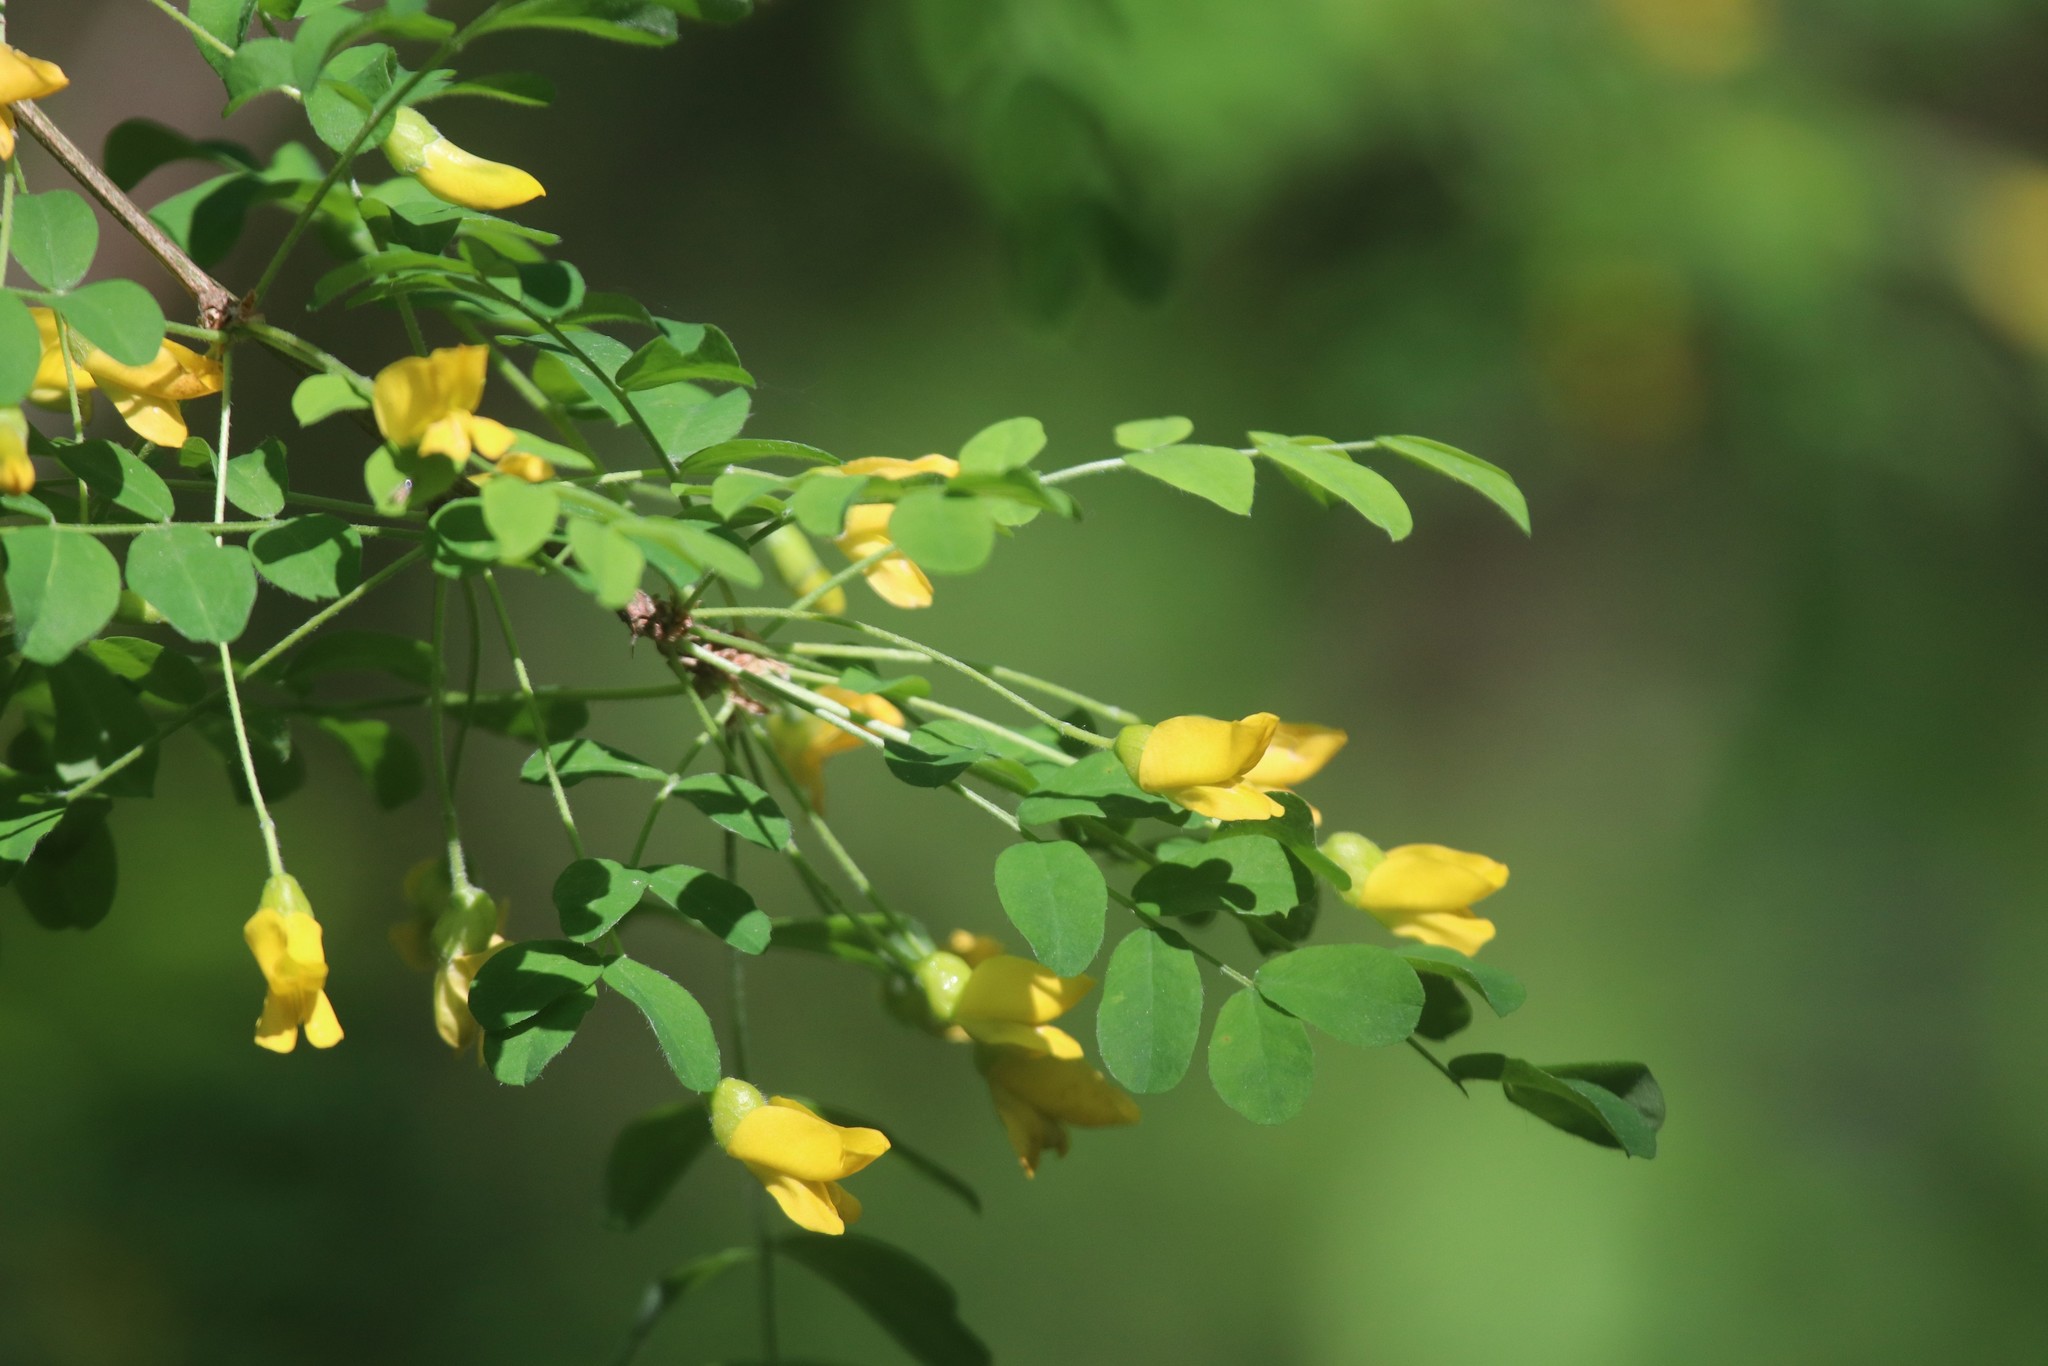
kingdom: Plantae
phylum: Tracheophyta
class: Magnoliopsida
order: Fabales
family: Fabaceae
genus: Caragana
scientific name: Caragana arborescens
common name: Siberian peashrub
